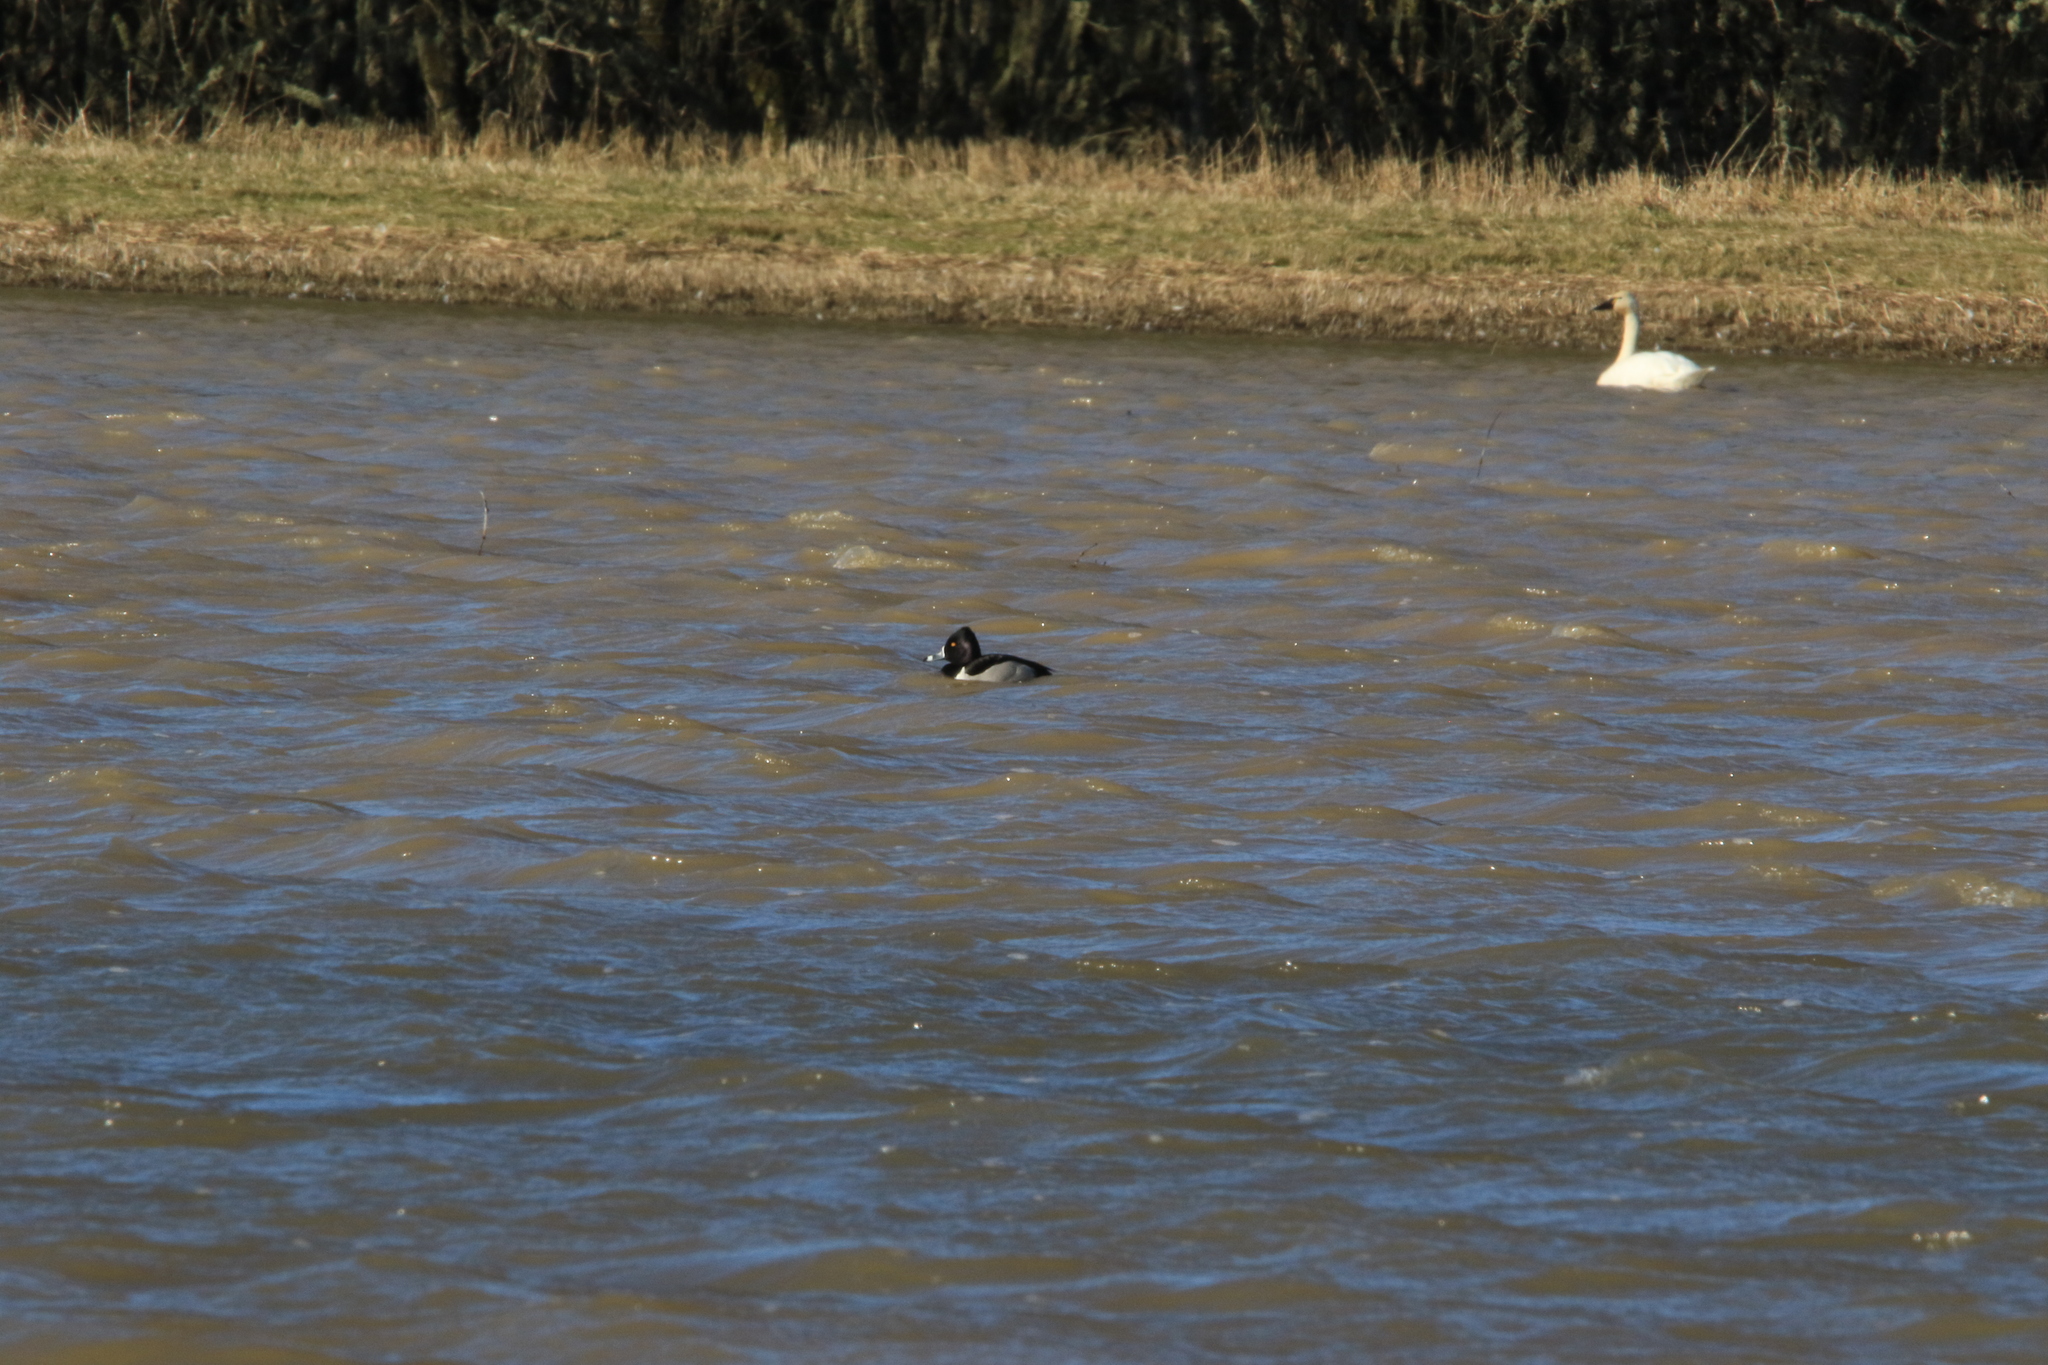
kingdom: Animalia
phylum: Chordata
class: Aves
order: Anseriformes
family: Anatidae
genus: Aythya
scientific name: Aythya collaris
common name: Ring-necked duck
